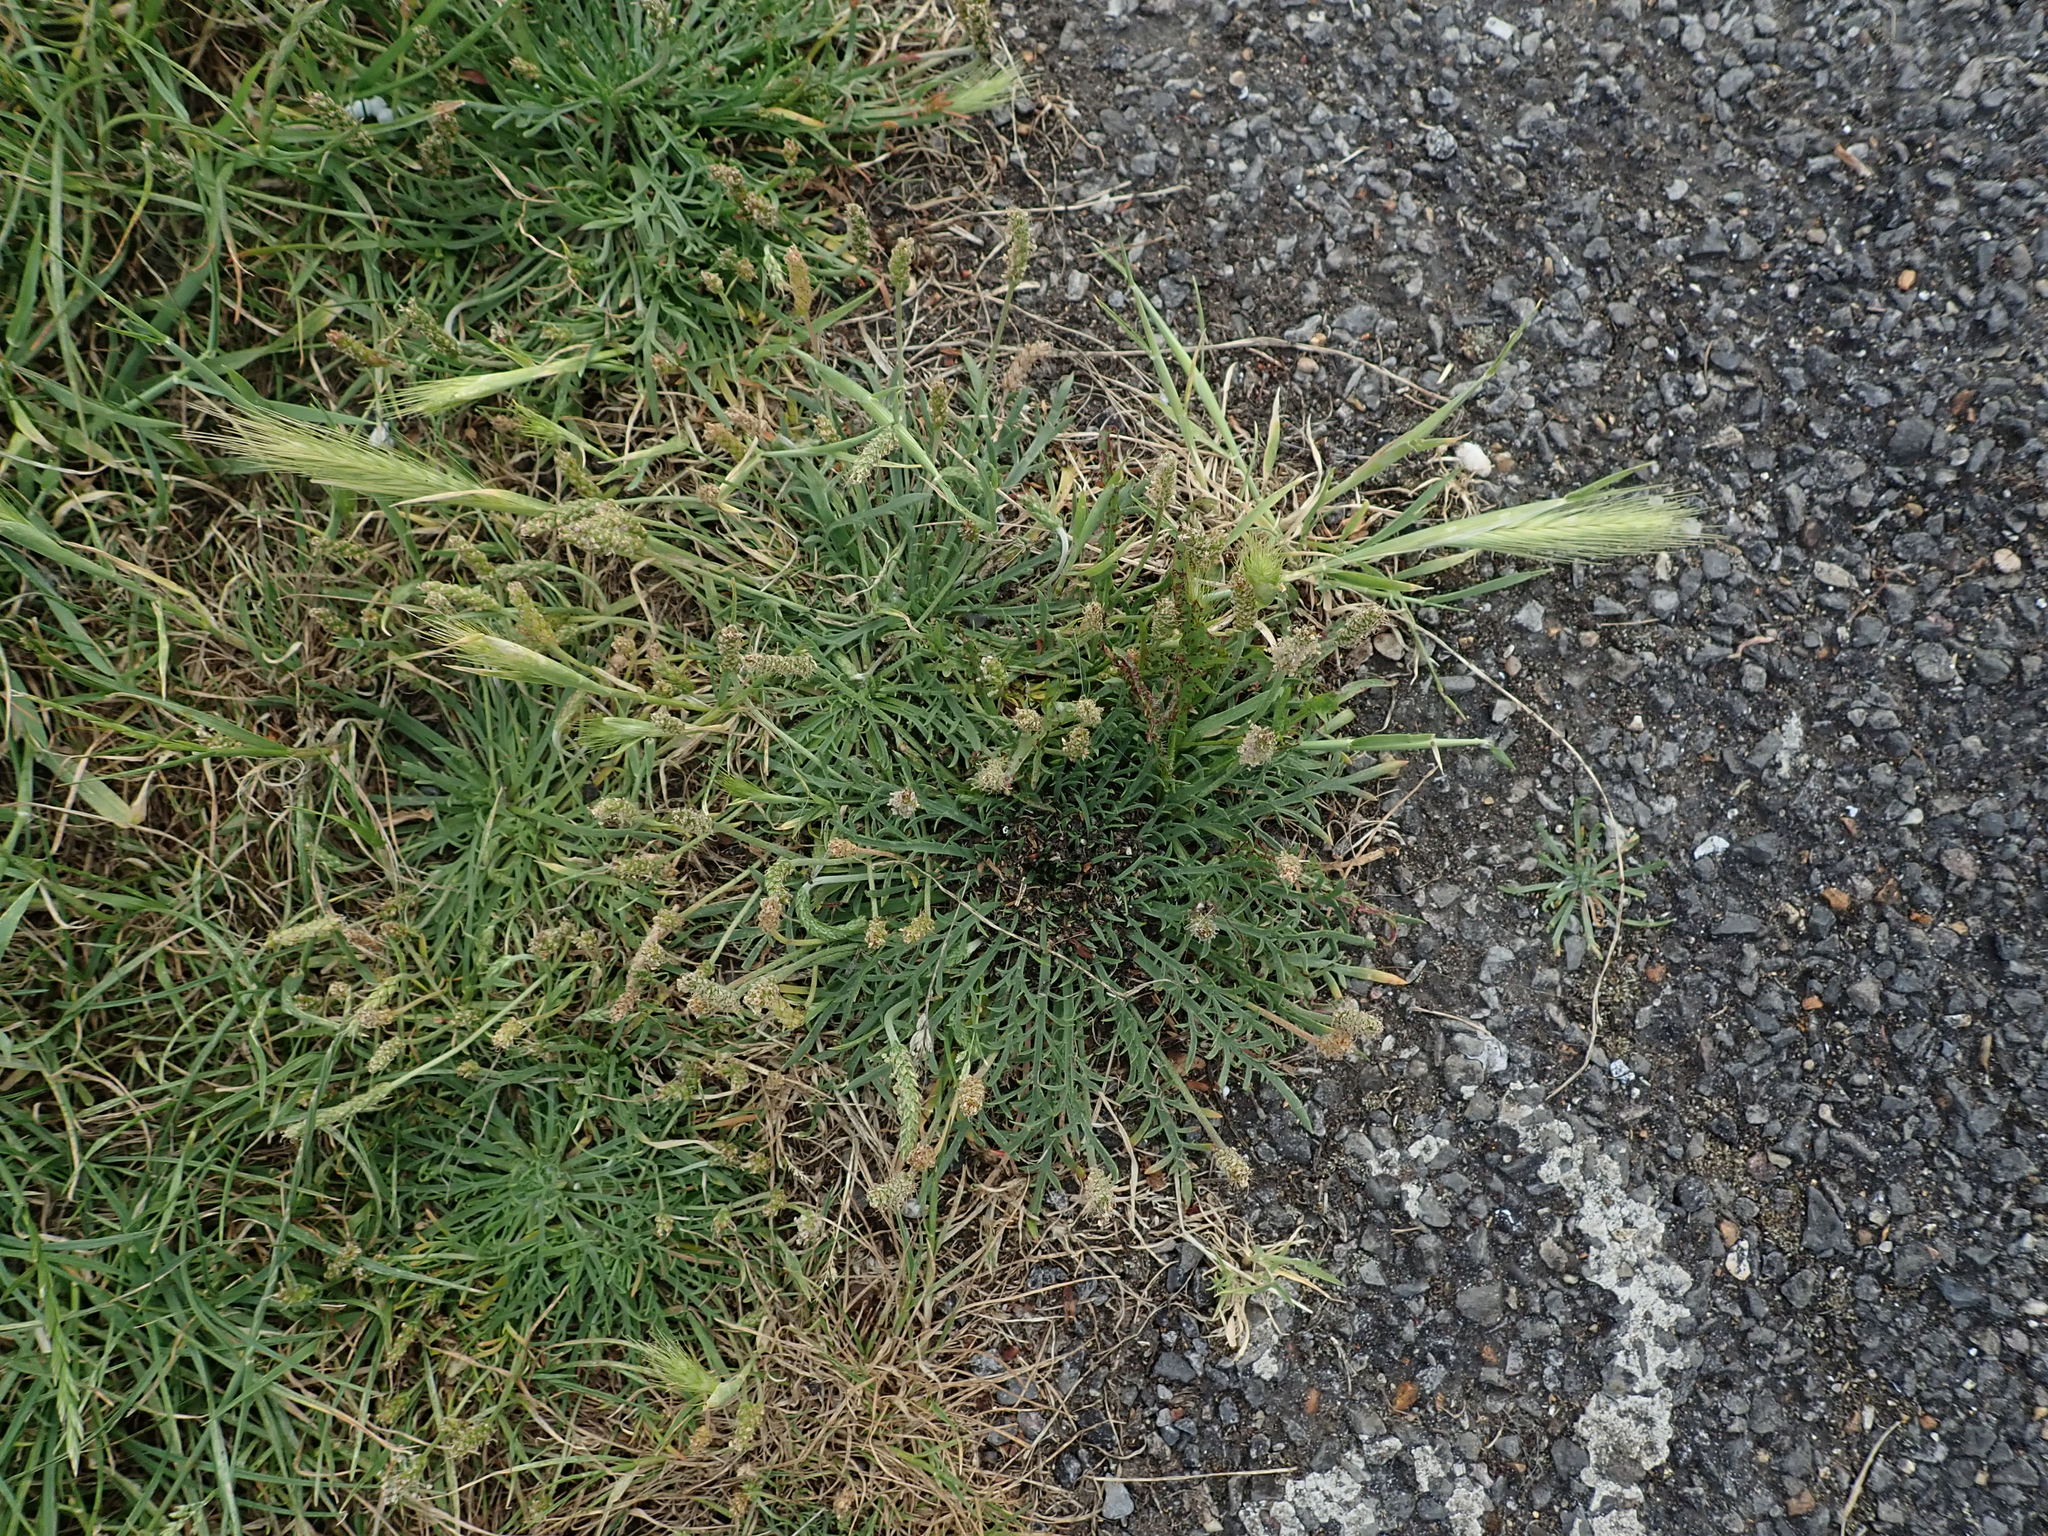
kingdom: Plantae
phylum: Tracheophyta
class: Magnoliopsida
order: Lamiales
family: Plantaginaceae
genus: Plantago
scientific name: Plantago coronopus
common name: Buck's-horn plantain
